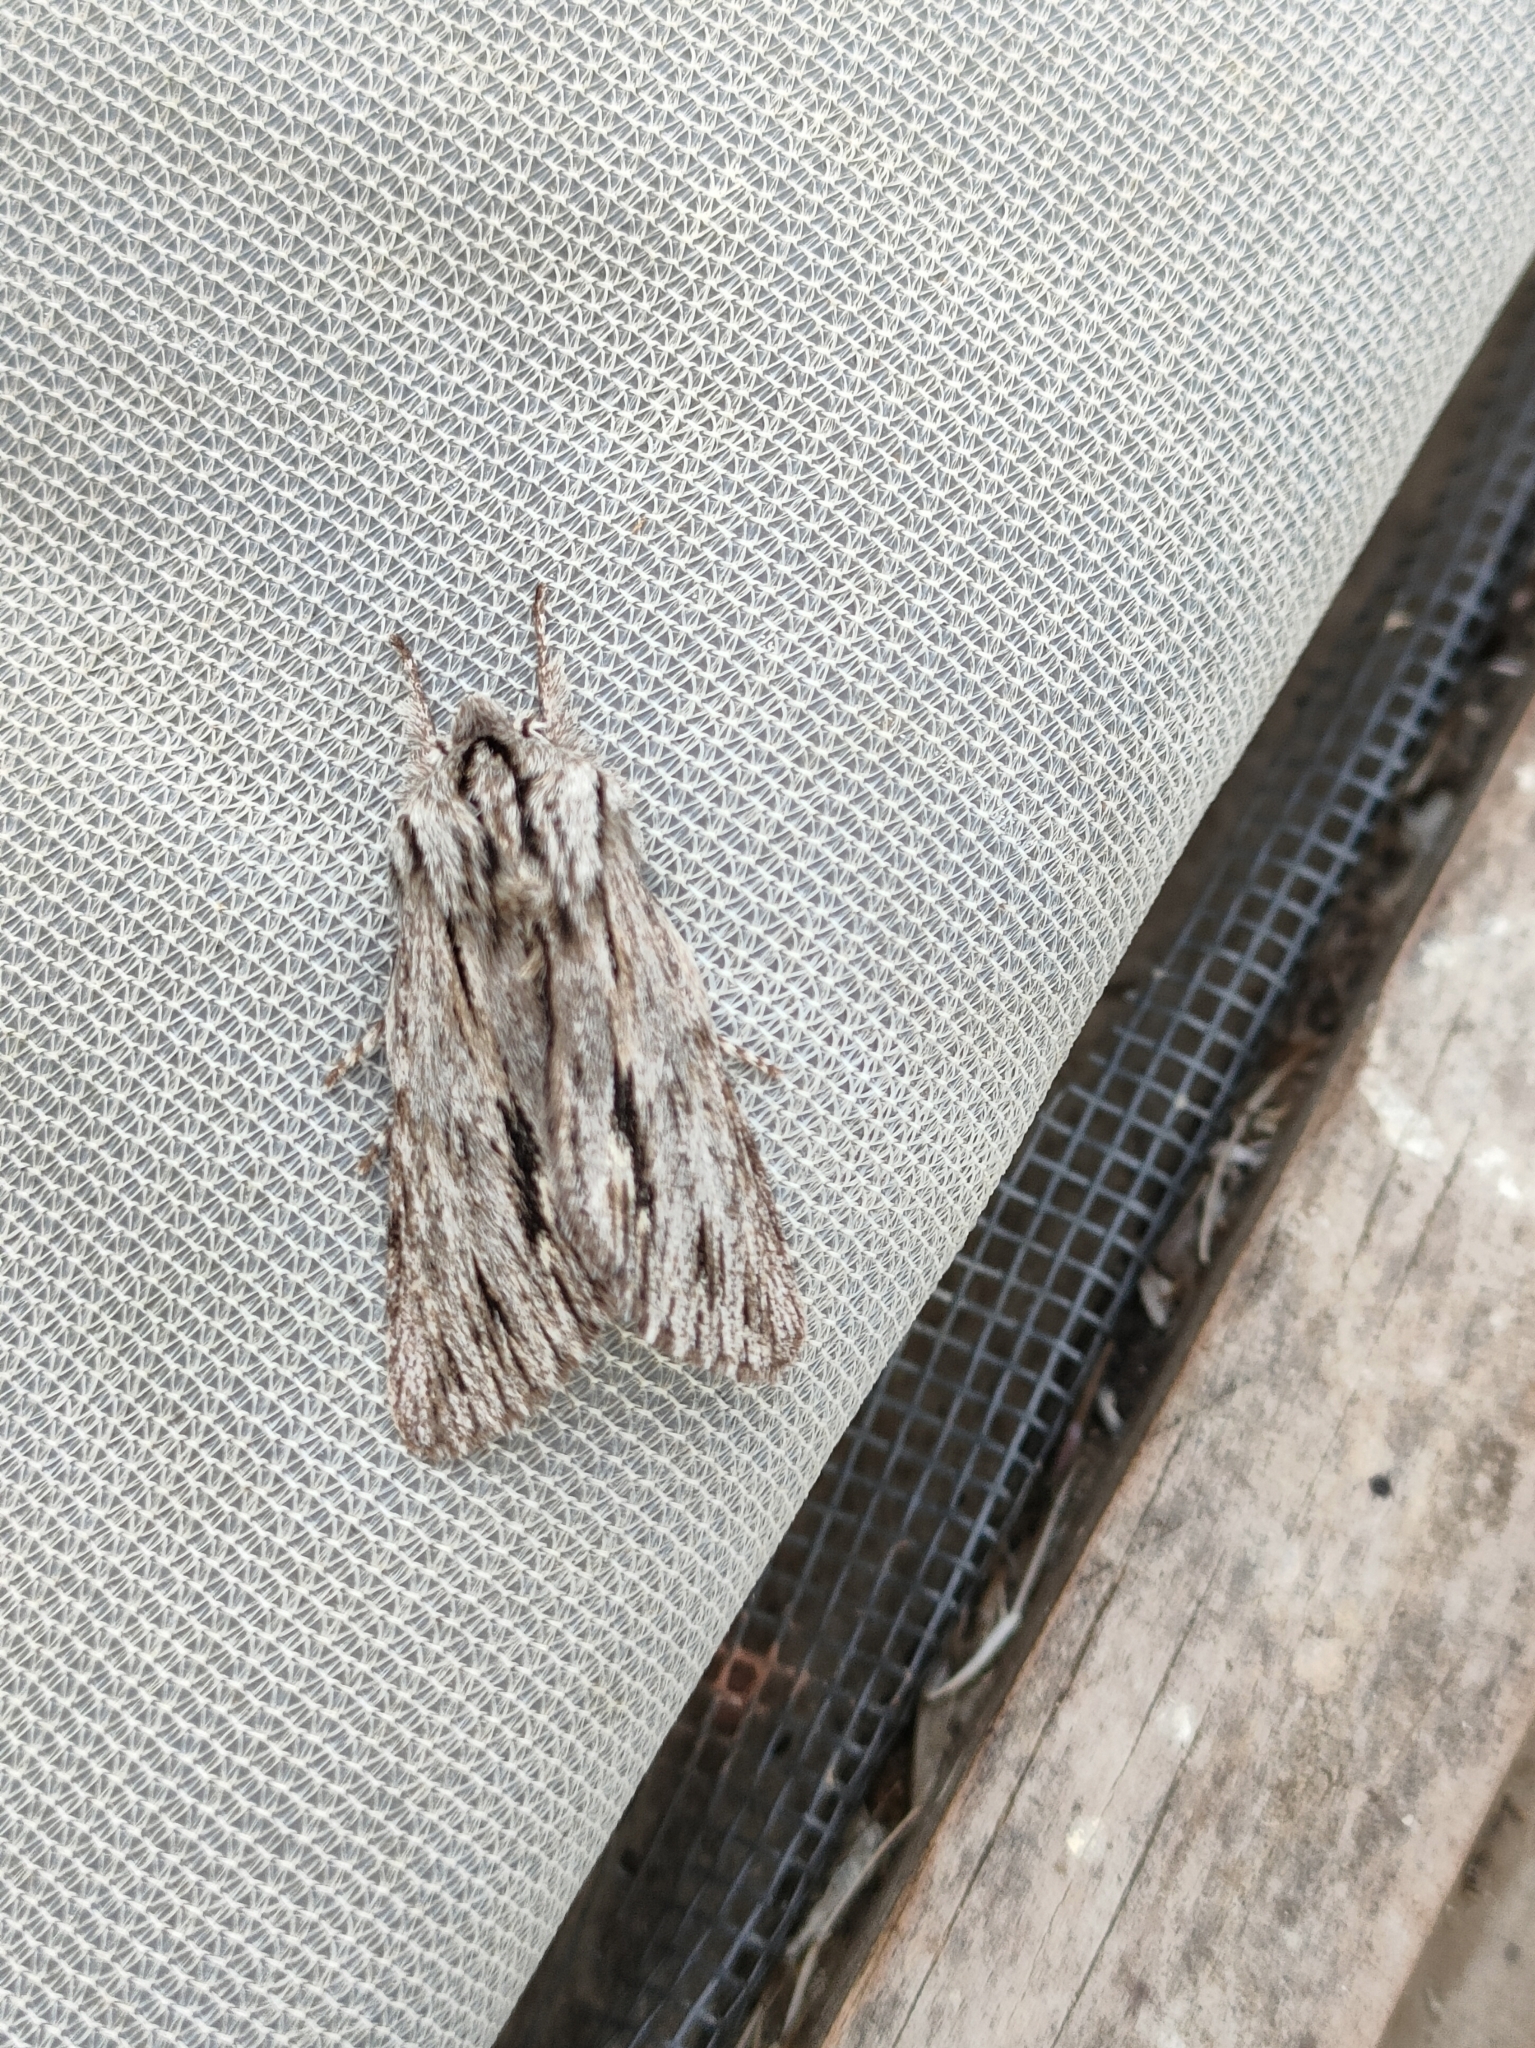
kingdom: Animalia
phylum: Arthropoda
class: Insecta
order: Lepidoptera
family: Noctuidae
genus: Asteroscopus
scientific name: Asteroscopus sphinx
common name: The sprawler
